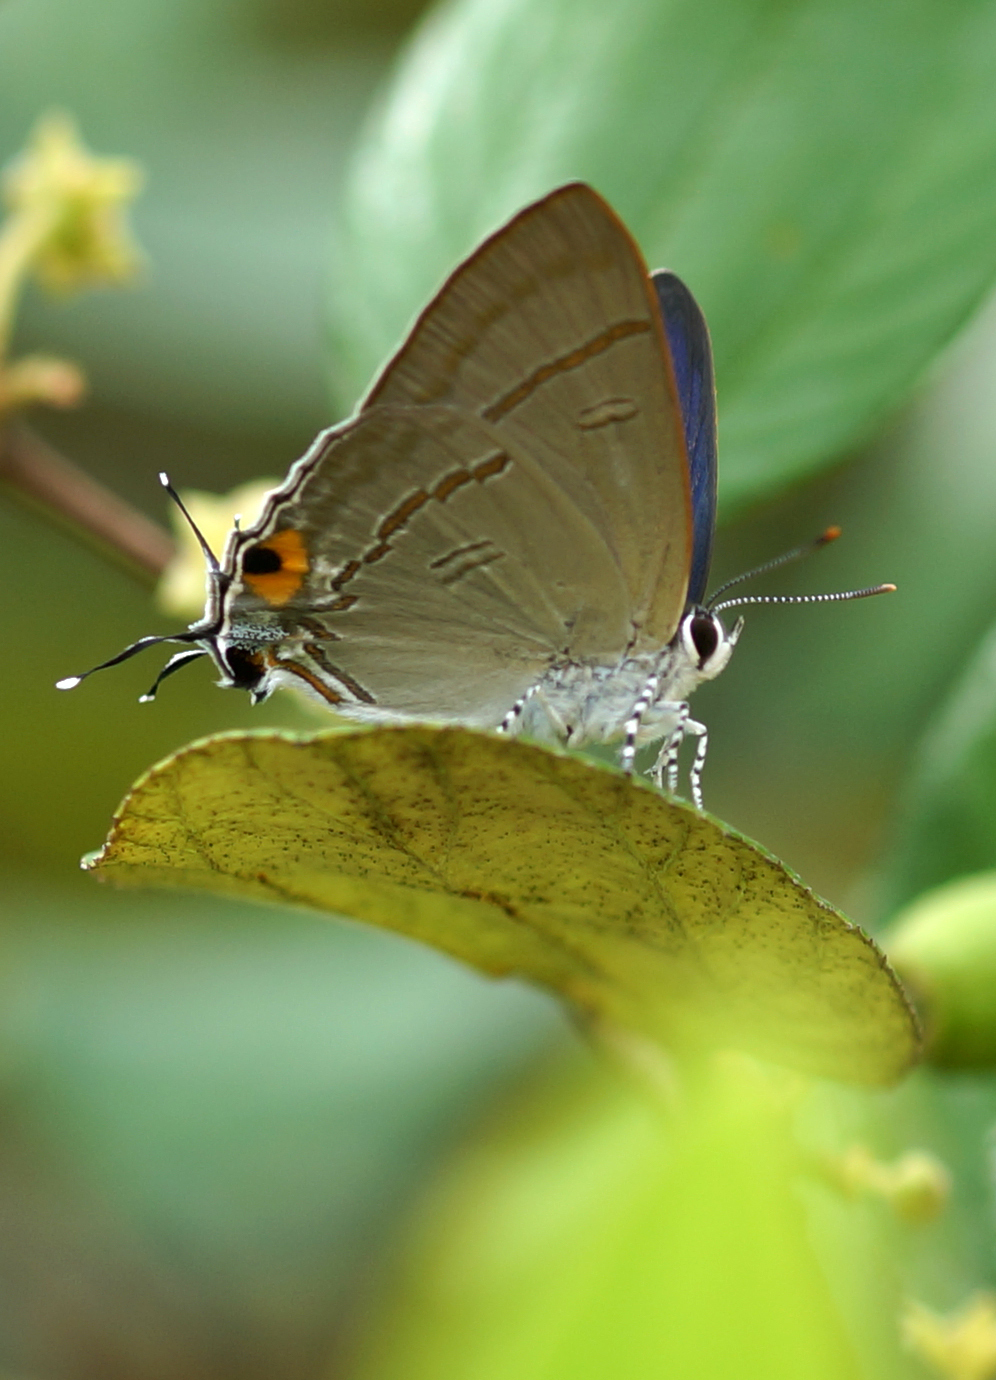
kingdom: Animalia
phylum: Arthropoda
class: Insecta
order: Lepidoptera
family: Lycaenidae
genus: Hypolycaena
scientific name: Hypolycaena erylus
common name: Common tit
